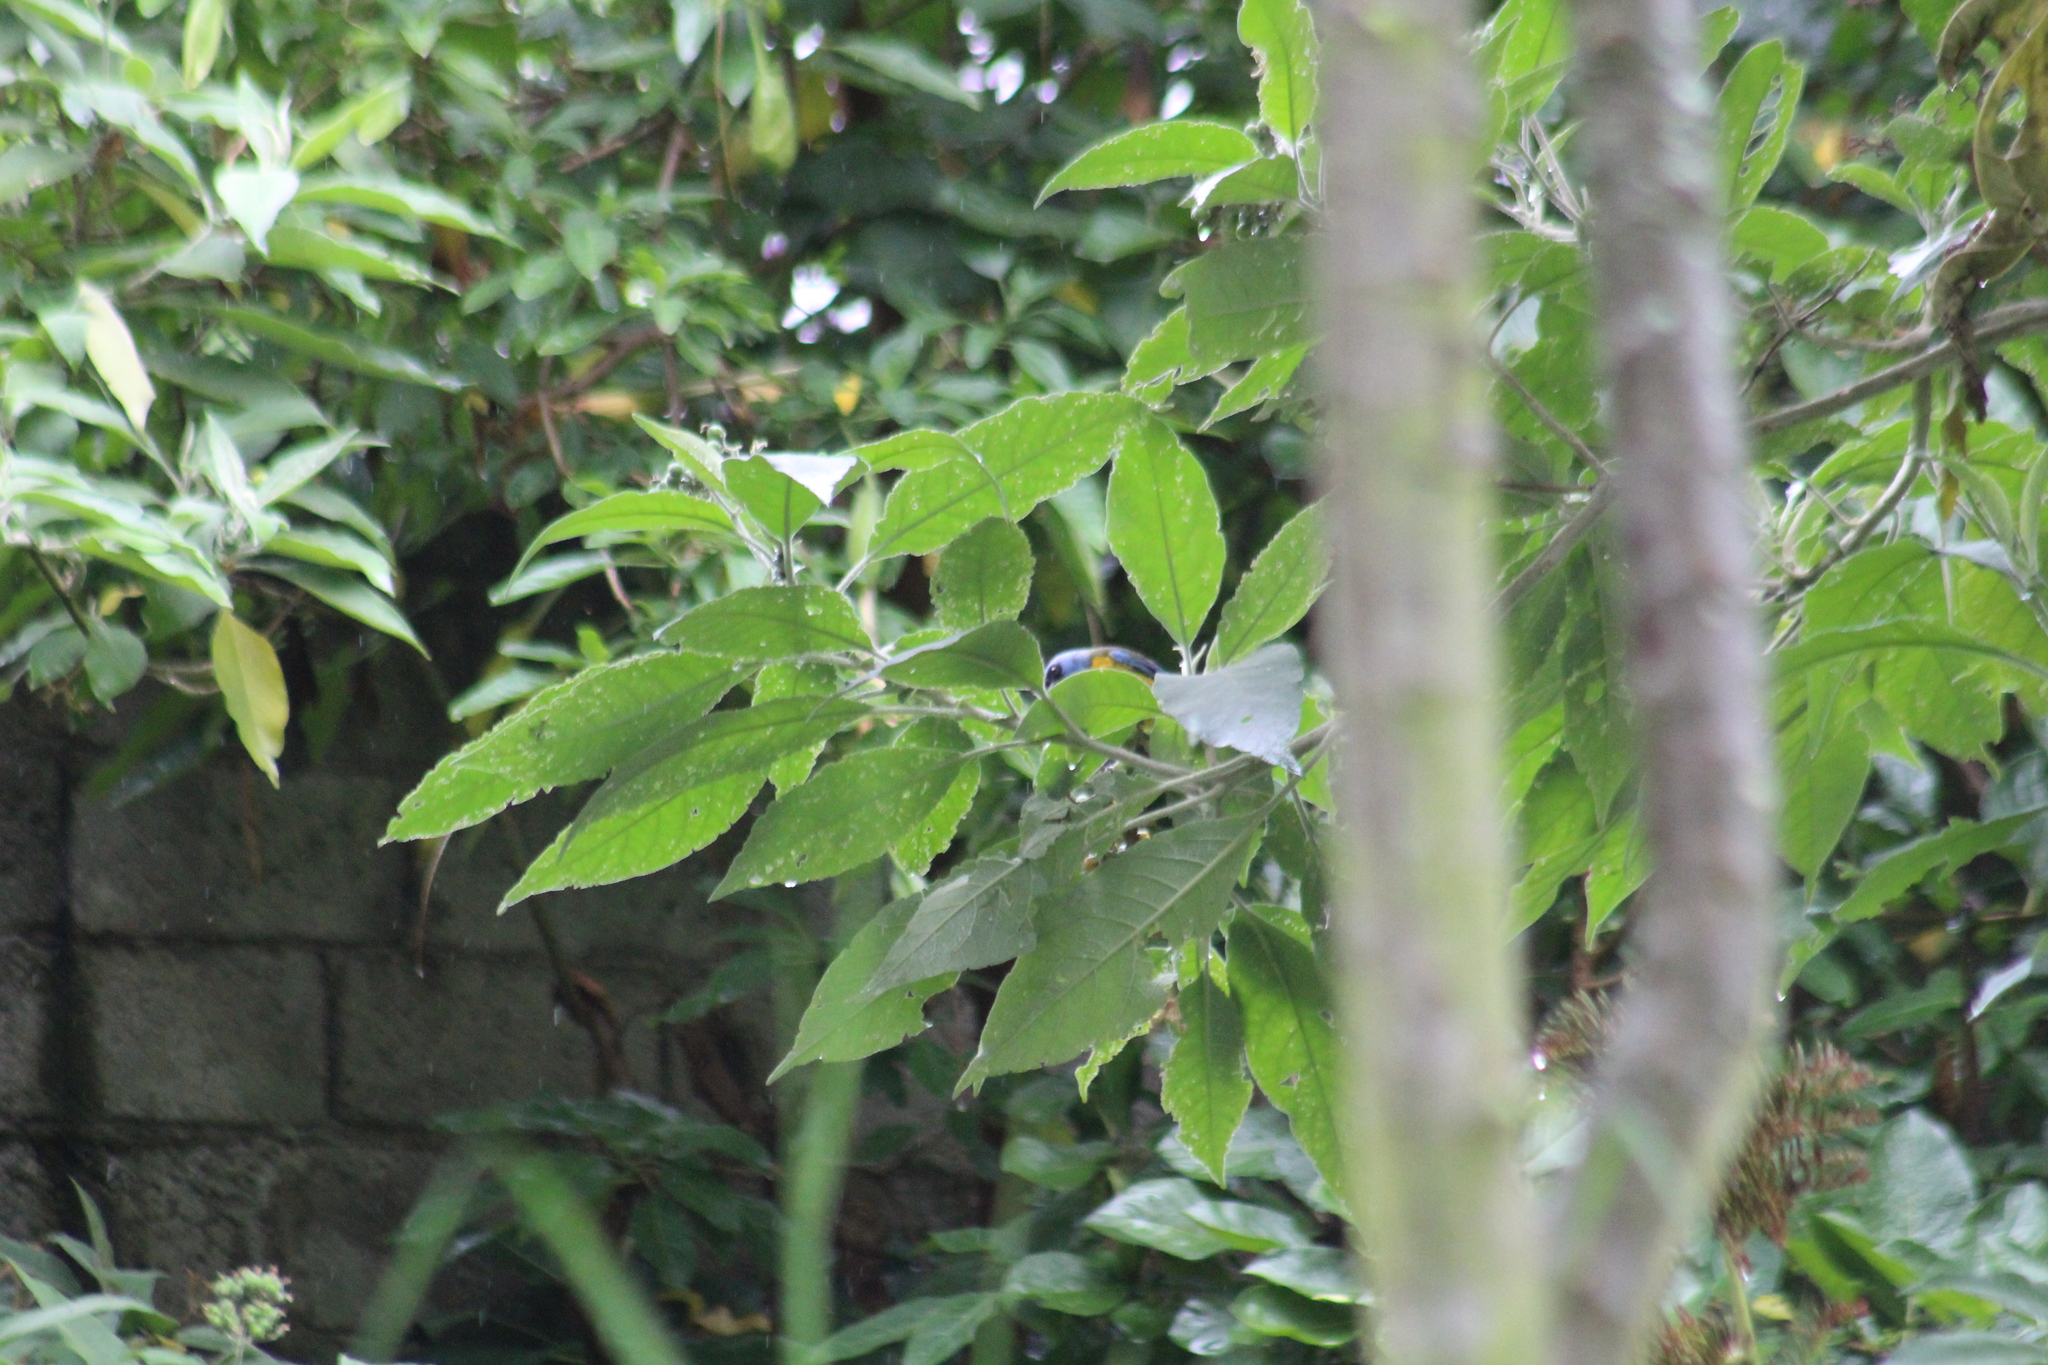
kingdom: Animalia
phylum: Chordata
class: Aves
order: Passeriformes
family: Thraupidae
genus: Rauenia
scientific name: Rauenia bonariensis
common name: Blue-and-yellow tanager
